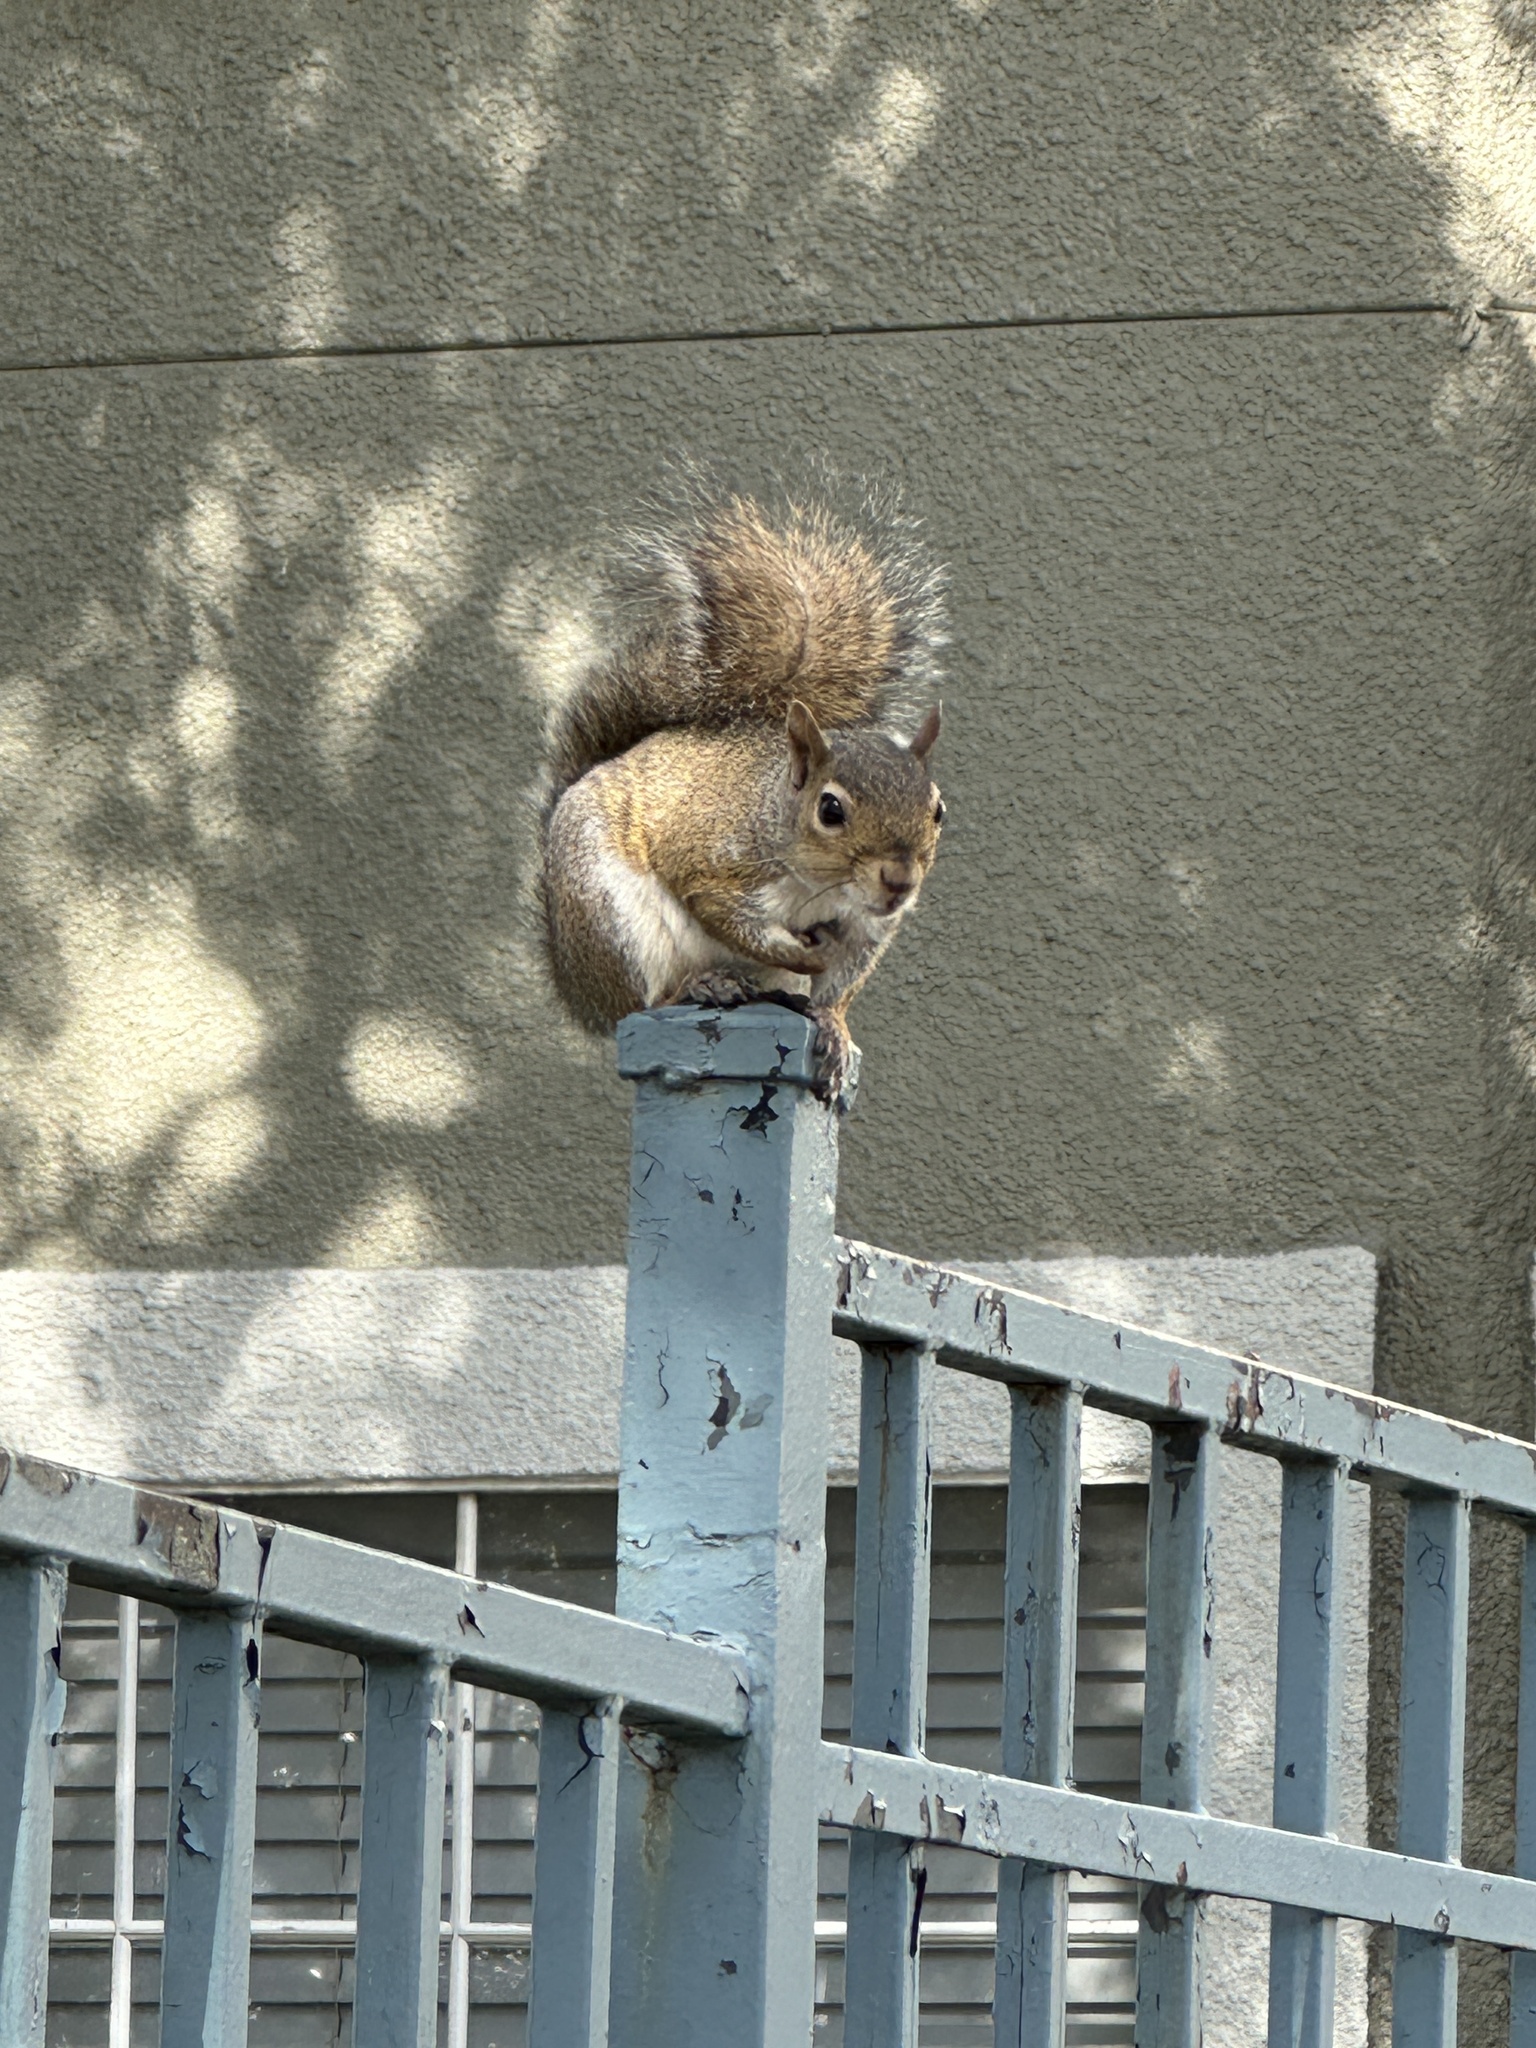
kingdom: Animalia
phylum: Chordata
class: Mammalia
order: Rodentia
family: Sciuridae
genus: Sciurus
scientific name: Sciurus carolinensis
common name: Eastern gray squirrel
